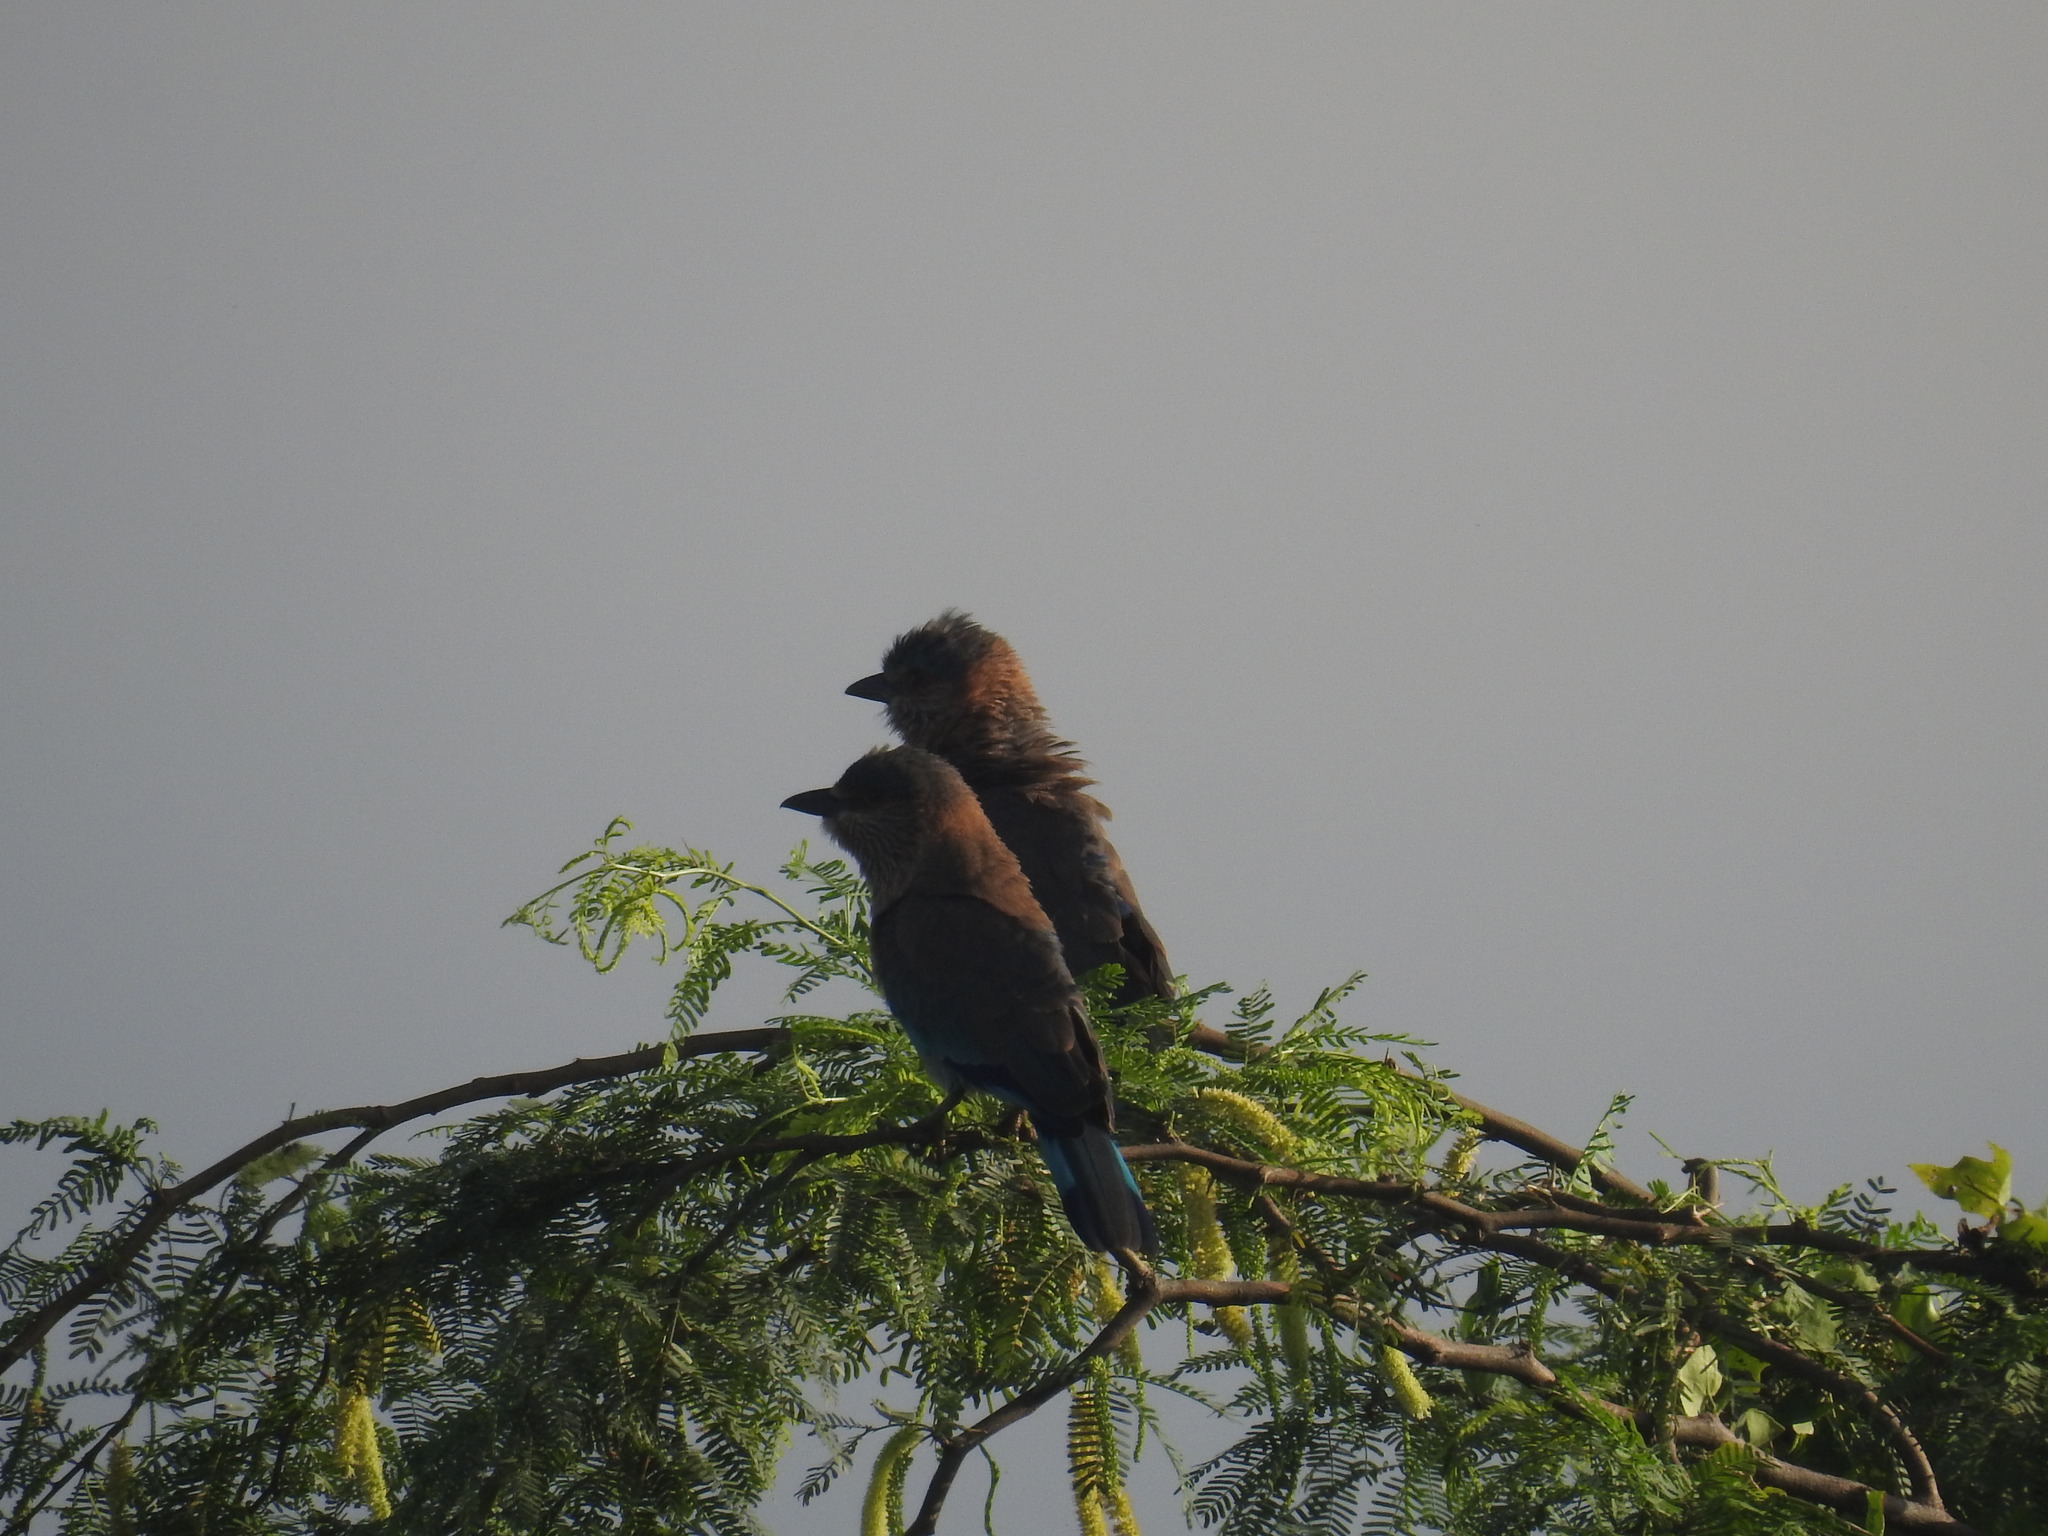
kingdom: Animalia
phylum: Chordata
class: Aves
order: Coraciiformes
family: Coraciidae
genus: Coracias
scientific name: Coracias benghalensis
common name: Indian roller
